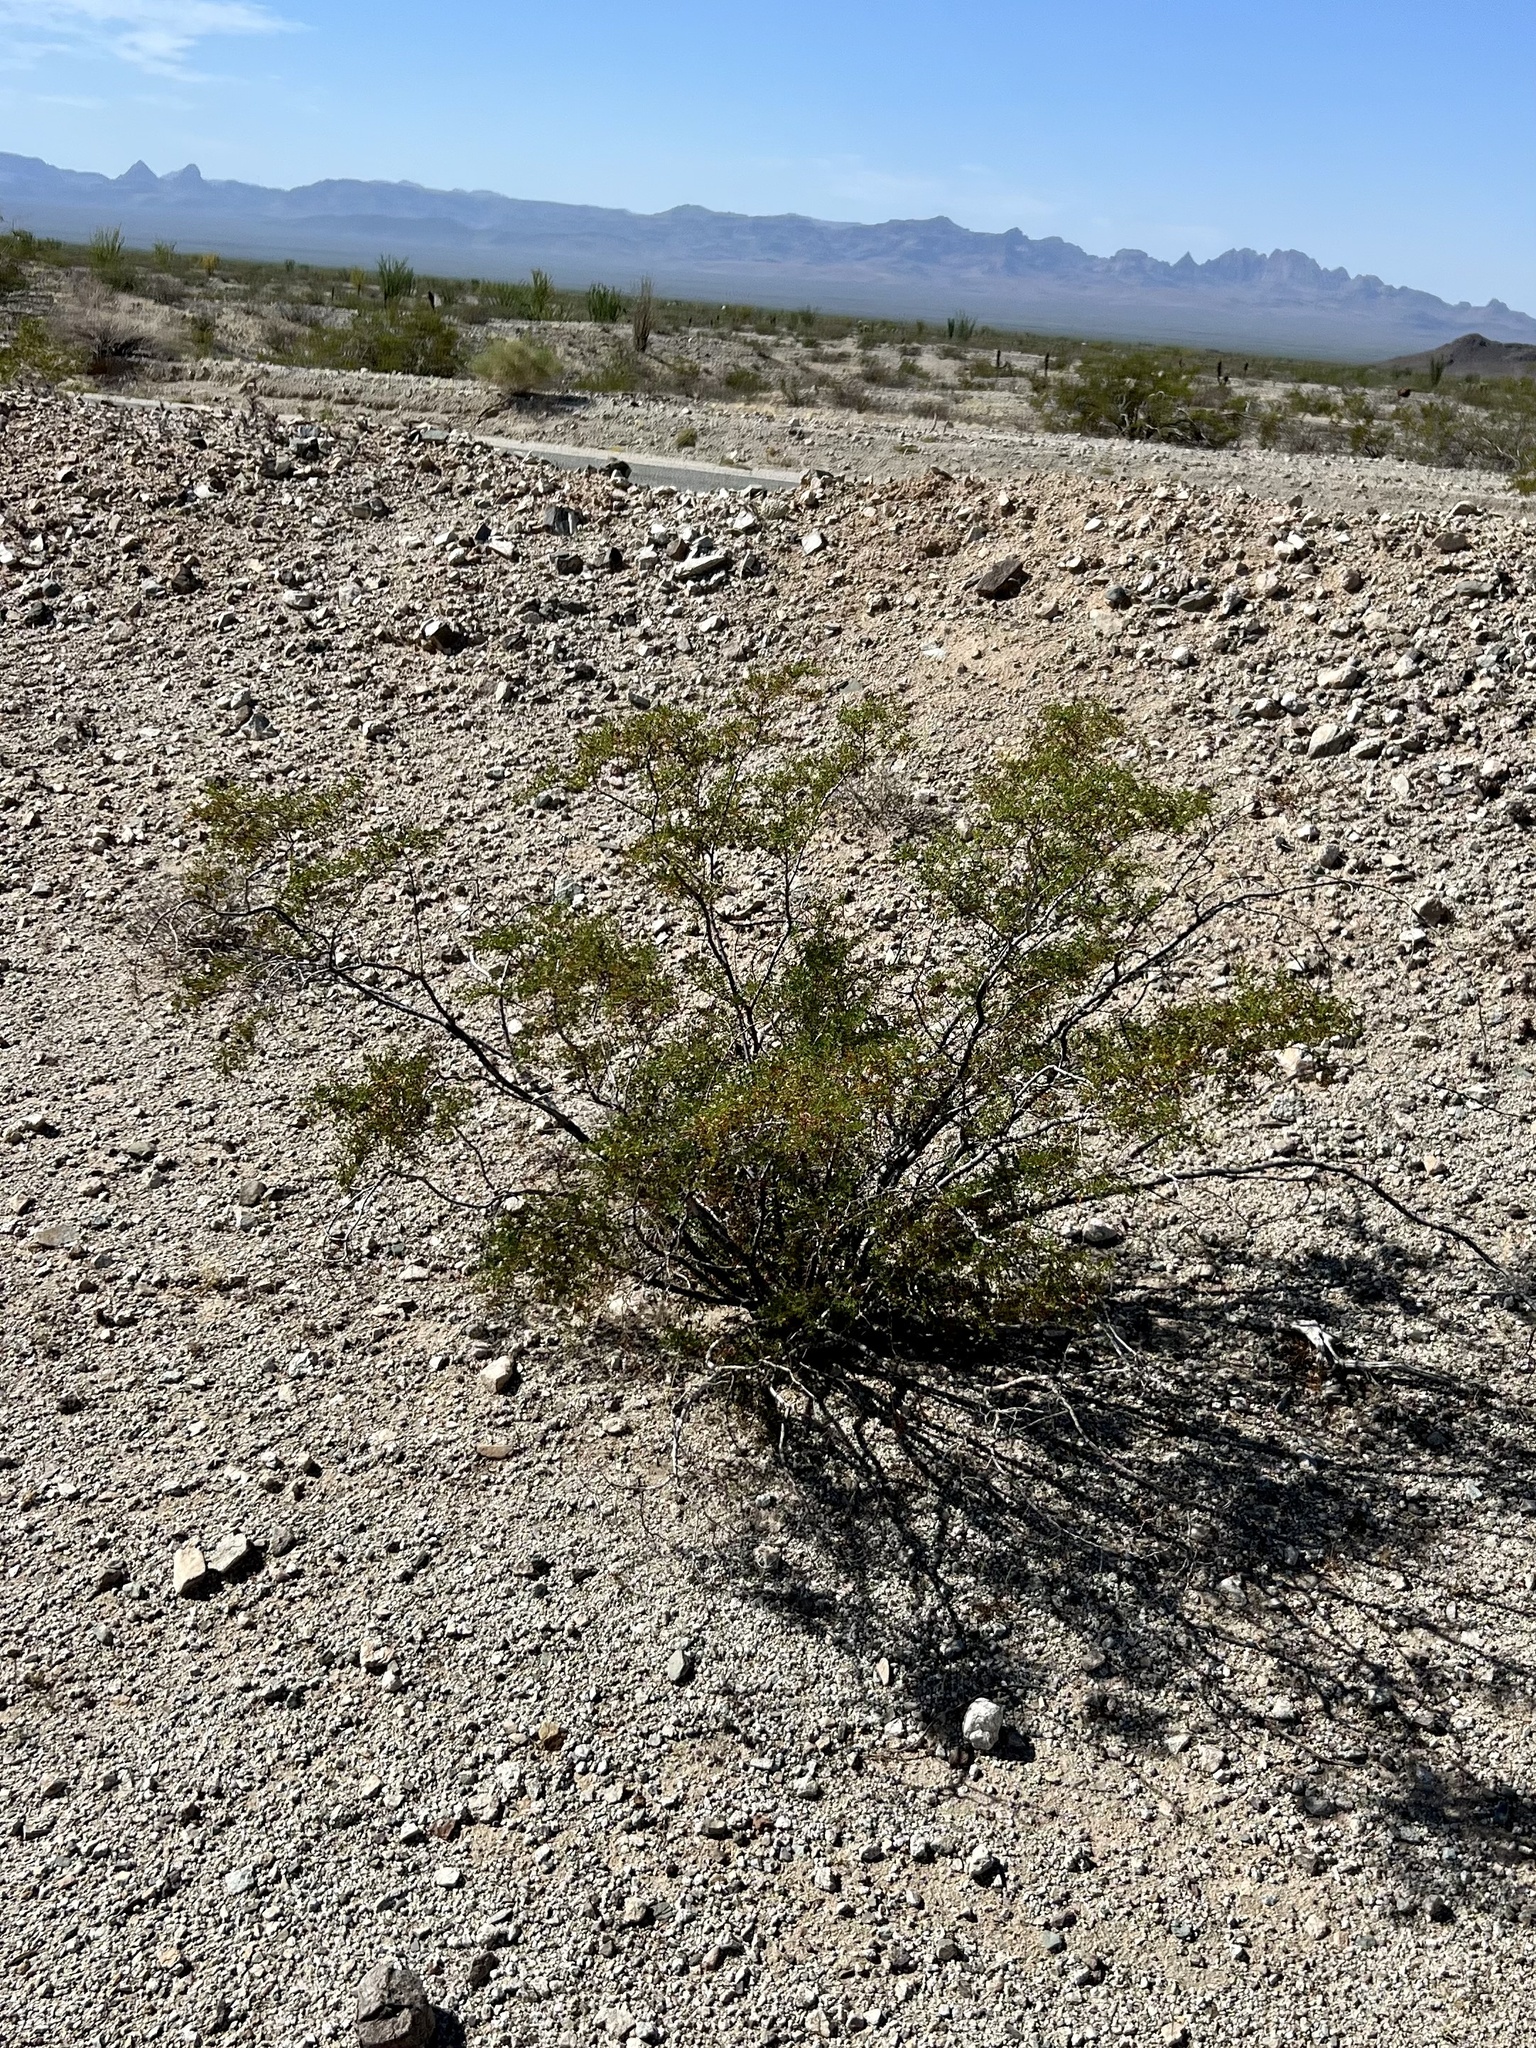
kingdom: Plantae
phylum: Tracheophyta
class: Magnoliopsida
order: Zygophyllales
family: Zygophyllaceae
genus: Larrea
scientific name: Larrea tridentata
